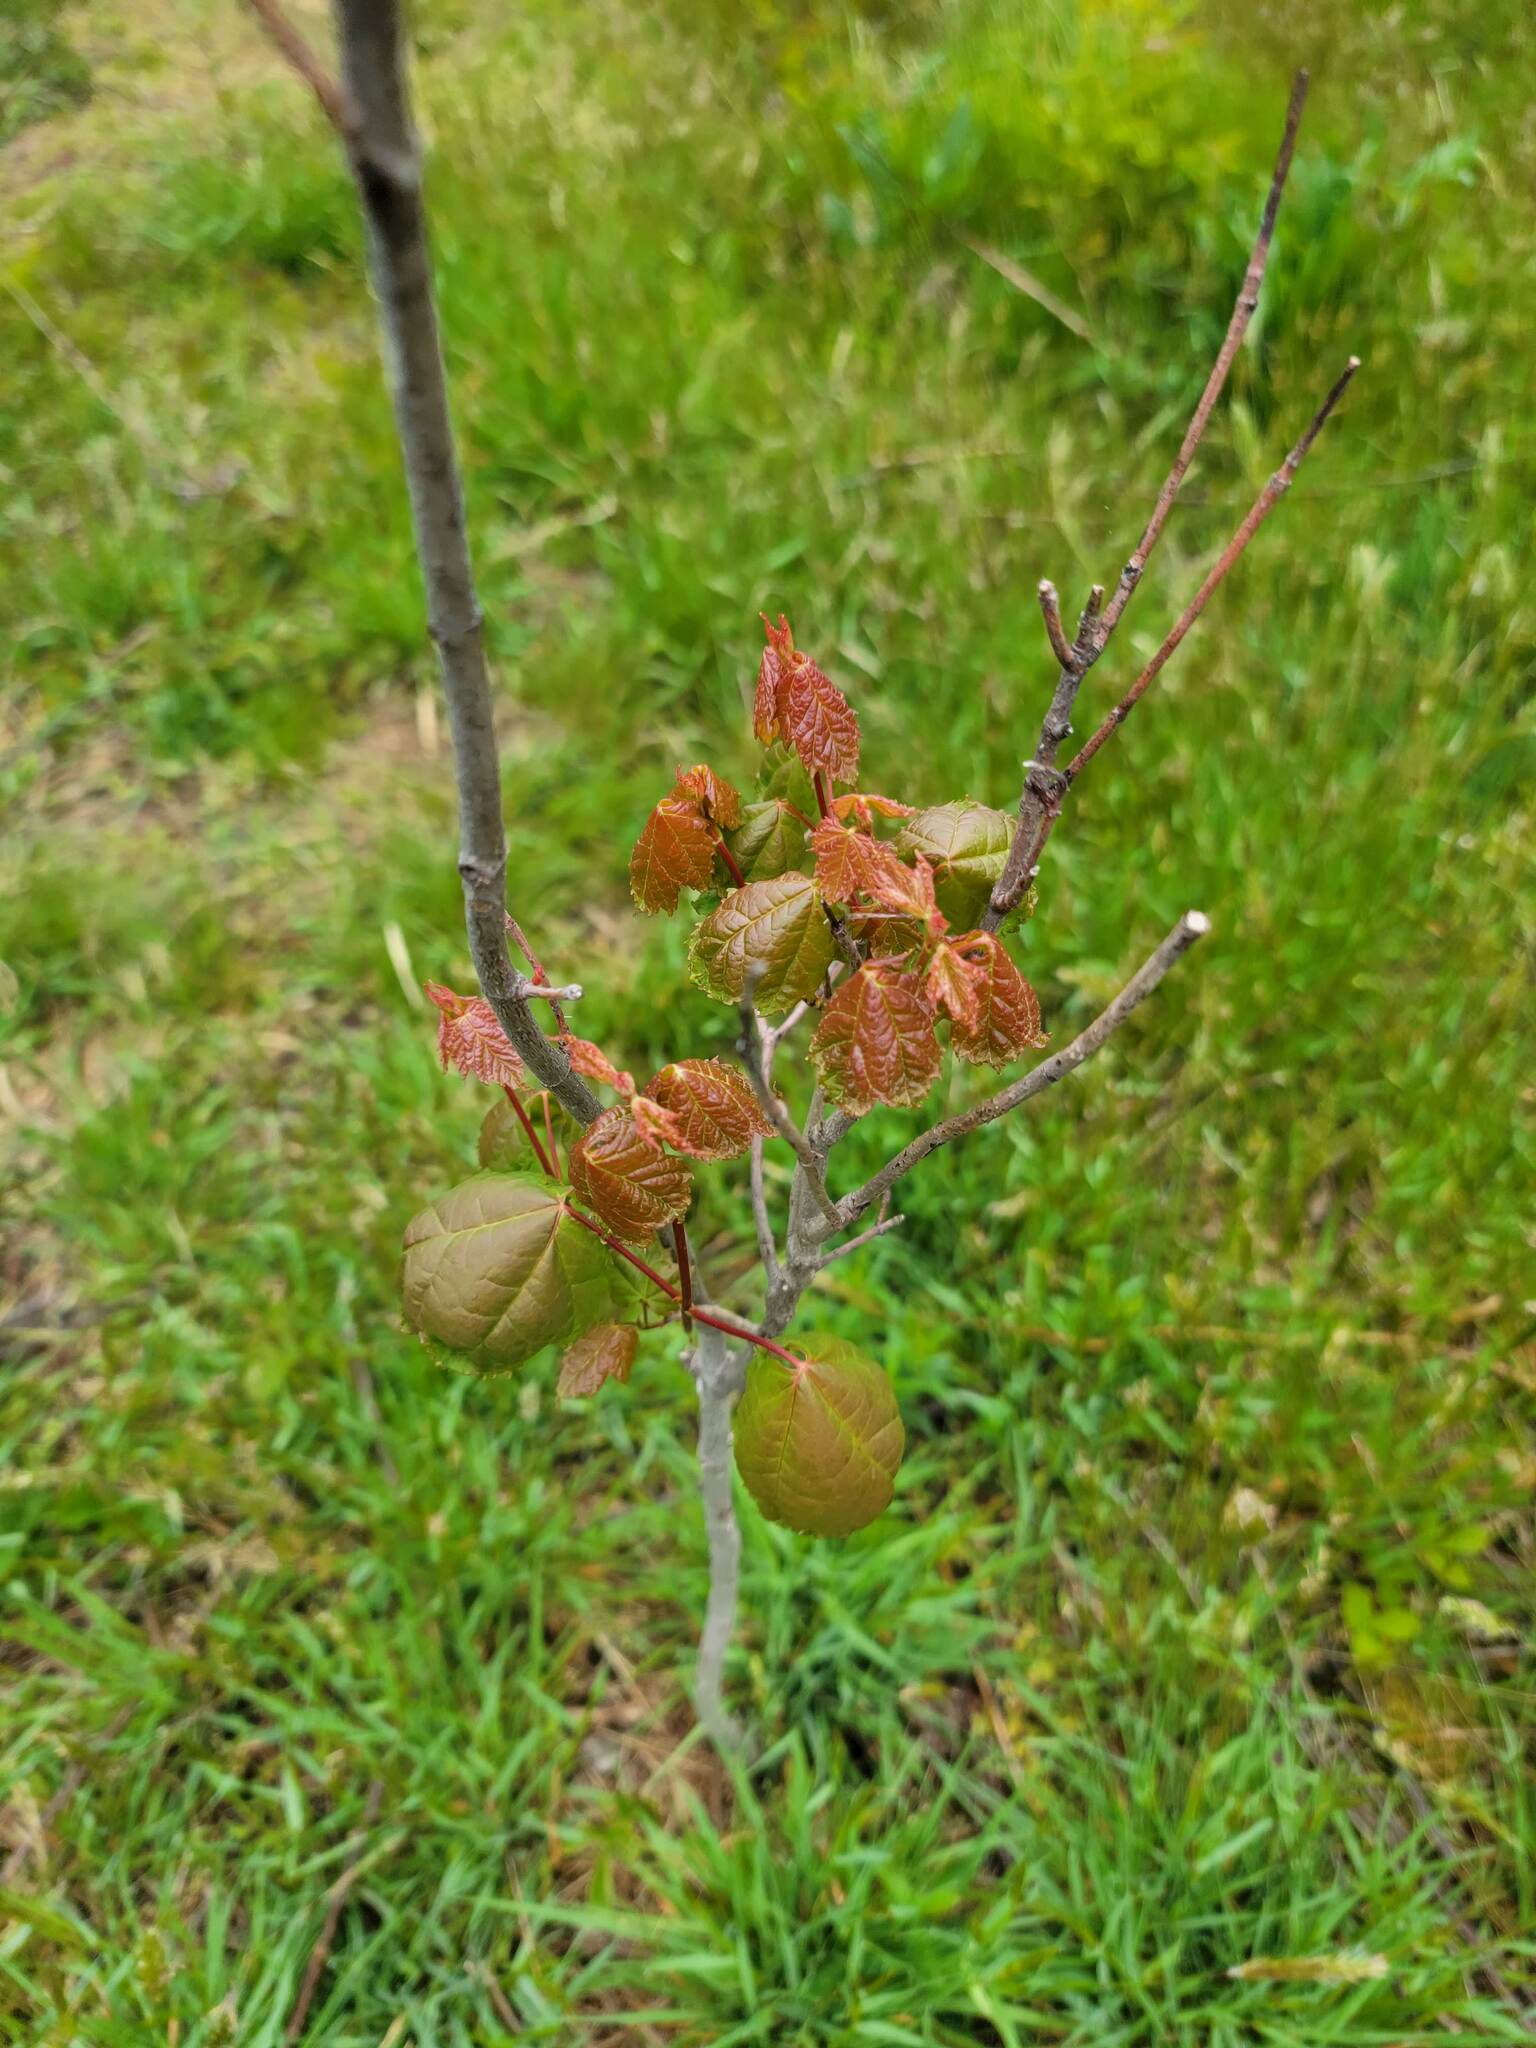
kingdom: Plantae
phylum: Tracheophyta
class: Magnoliopsida
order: Sapindales
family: Sapindaceae
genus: Acer
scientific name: Acer rubrum
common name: Red maple
